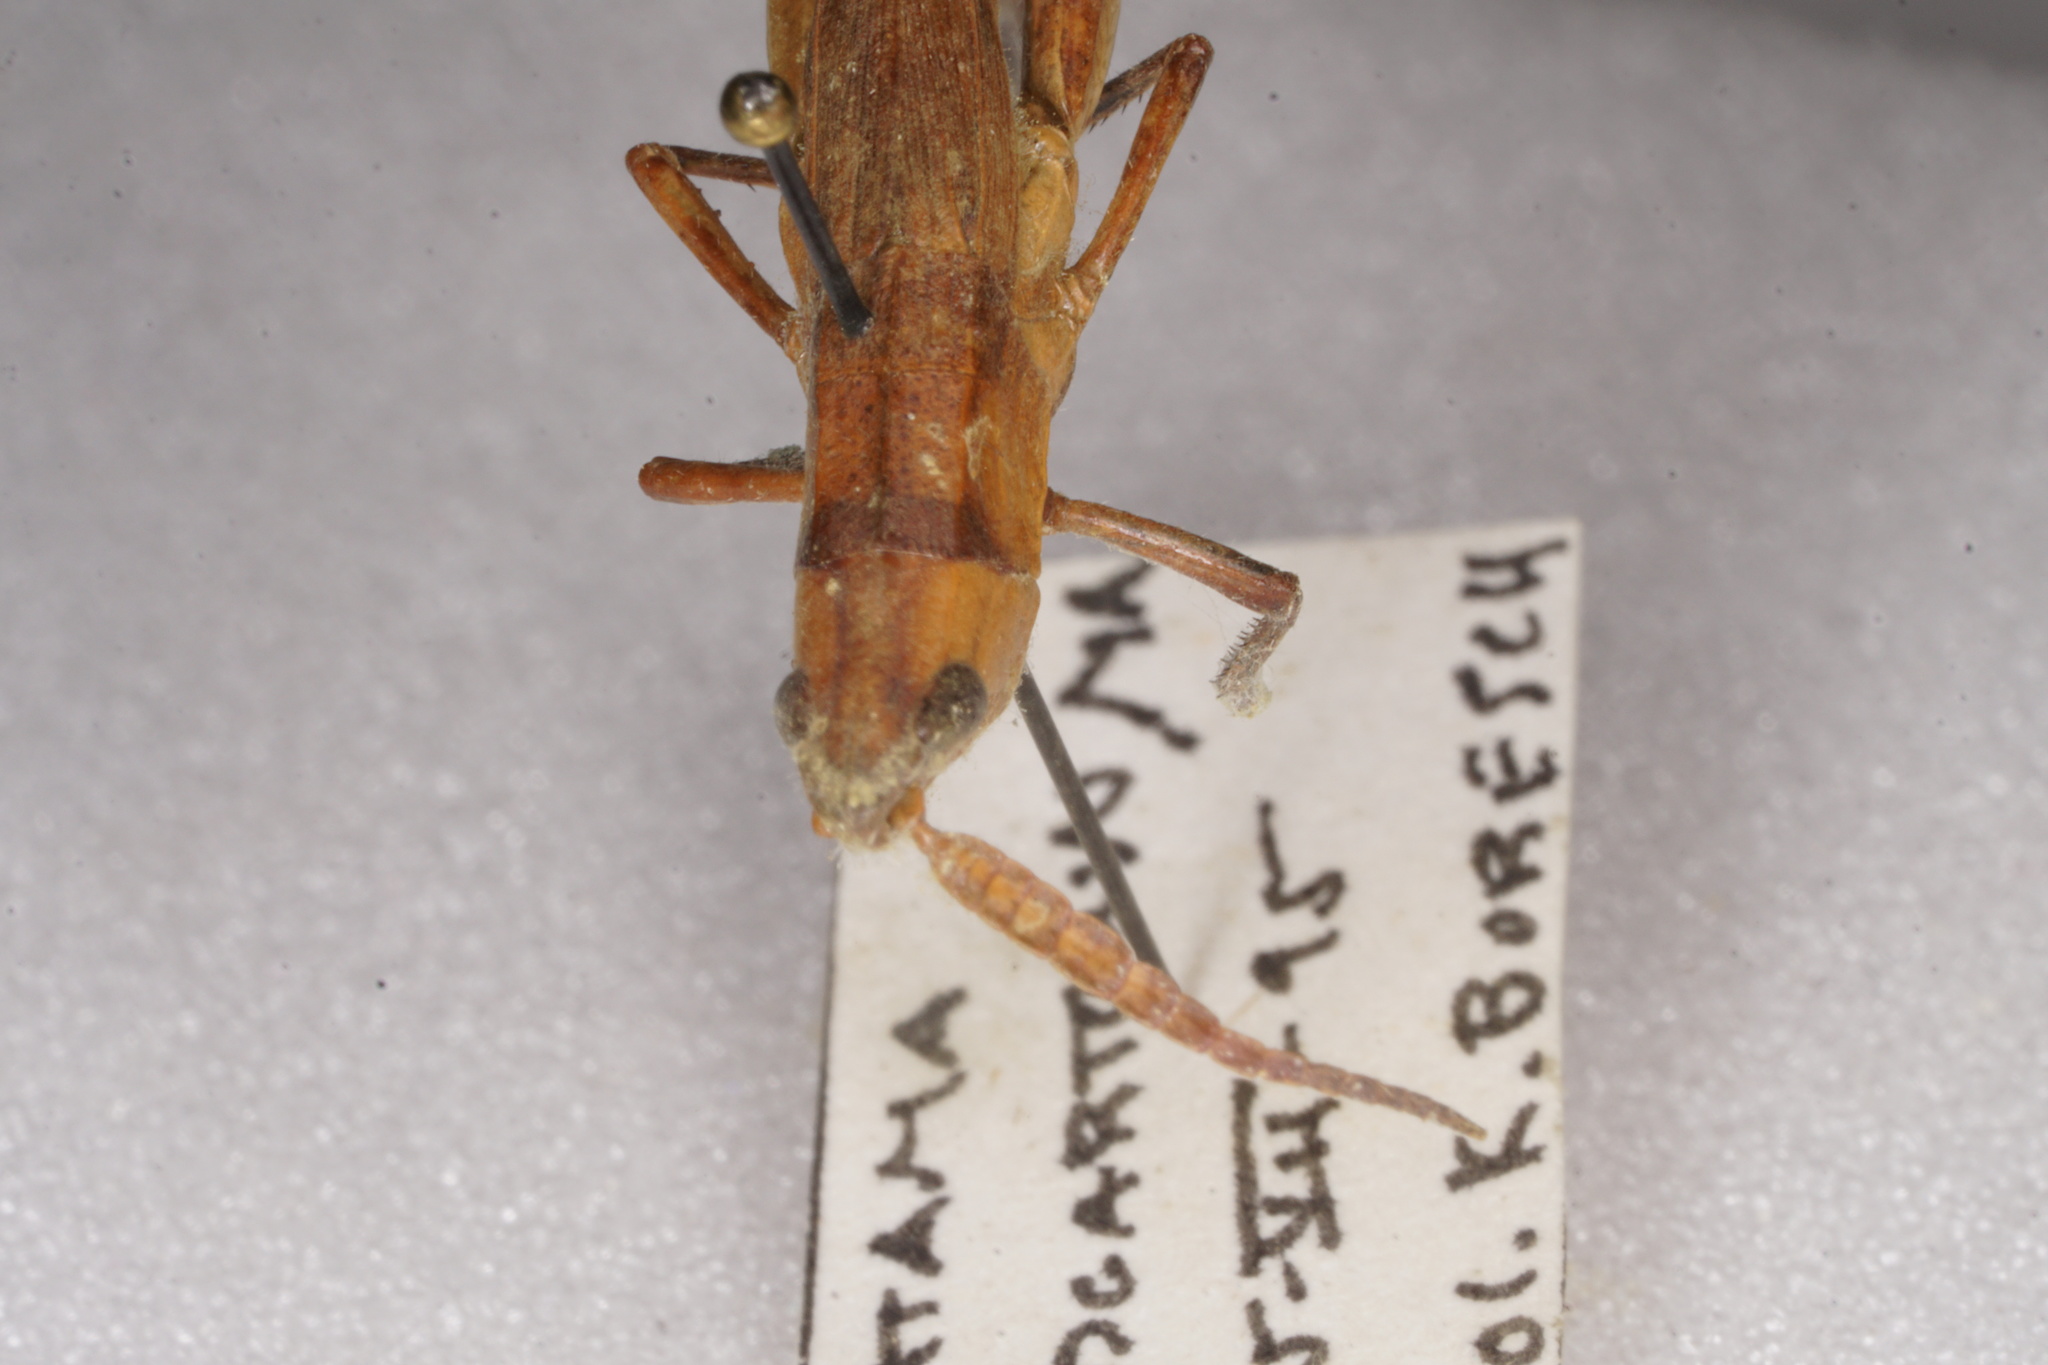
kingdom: Animalia
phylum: Arthropoda
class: Insecta
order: Orthoptera
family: Acrididae
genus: Pseudopomala
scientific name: Pseudopomala brachyptera
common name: Bunchgrass grasshopper
